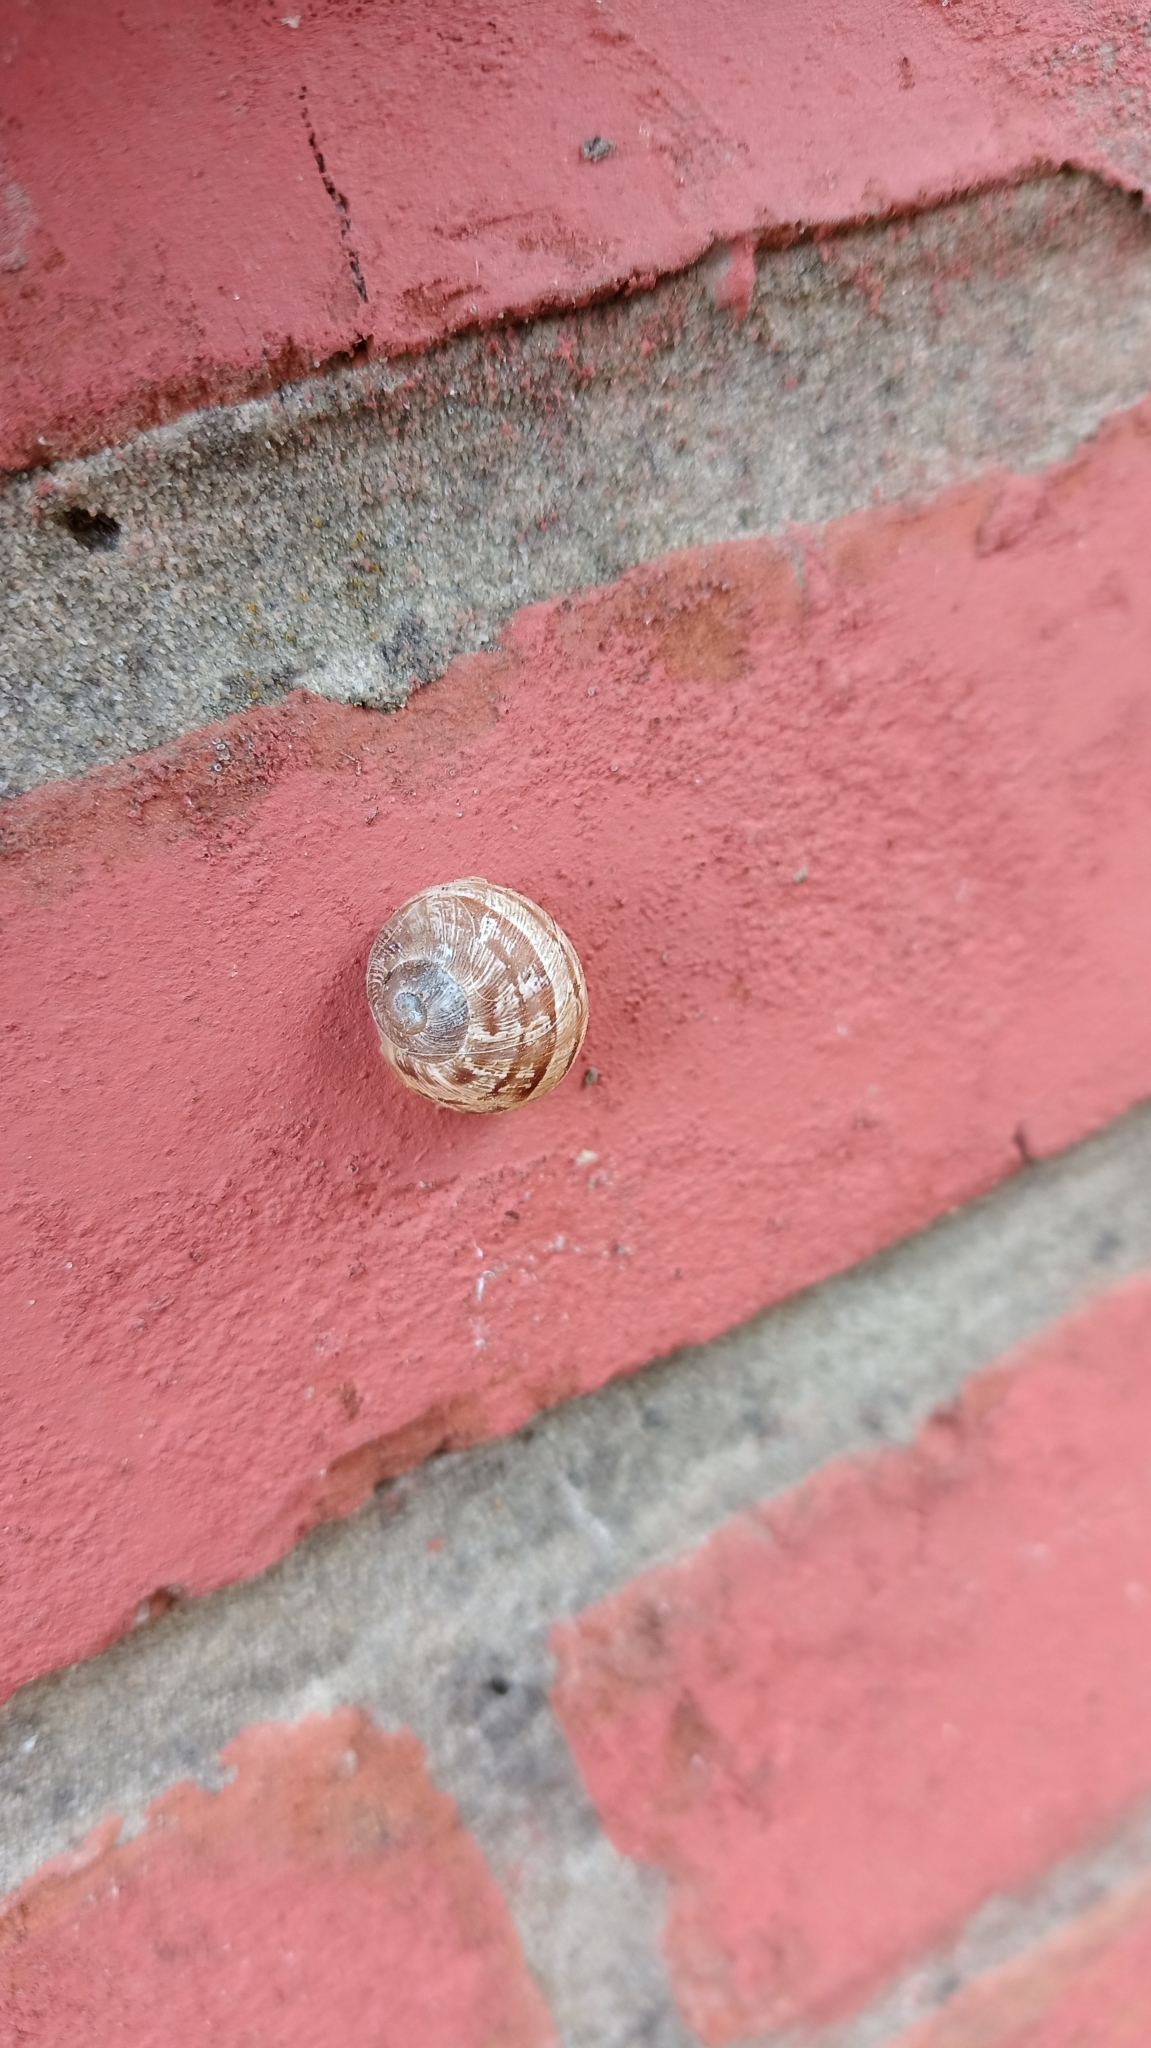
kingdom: Animalia
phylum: Mollusca
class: Gastropoda
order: Stylommatophora
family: Helicidae
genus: Cornu
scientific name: Cornu aspersum
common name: Brown garden snail
